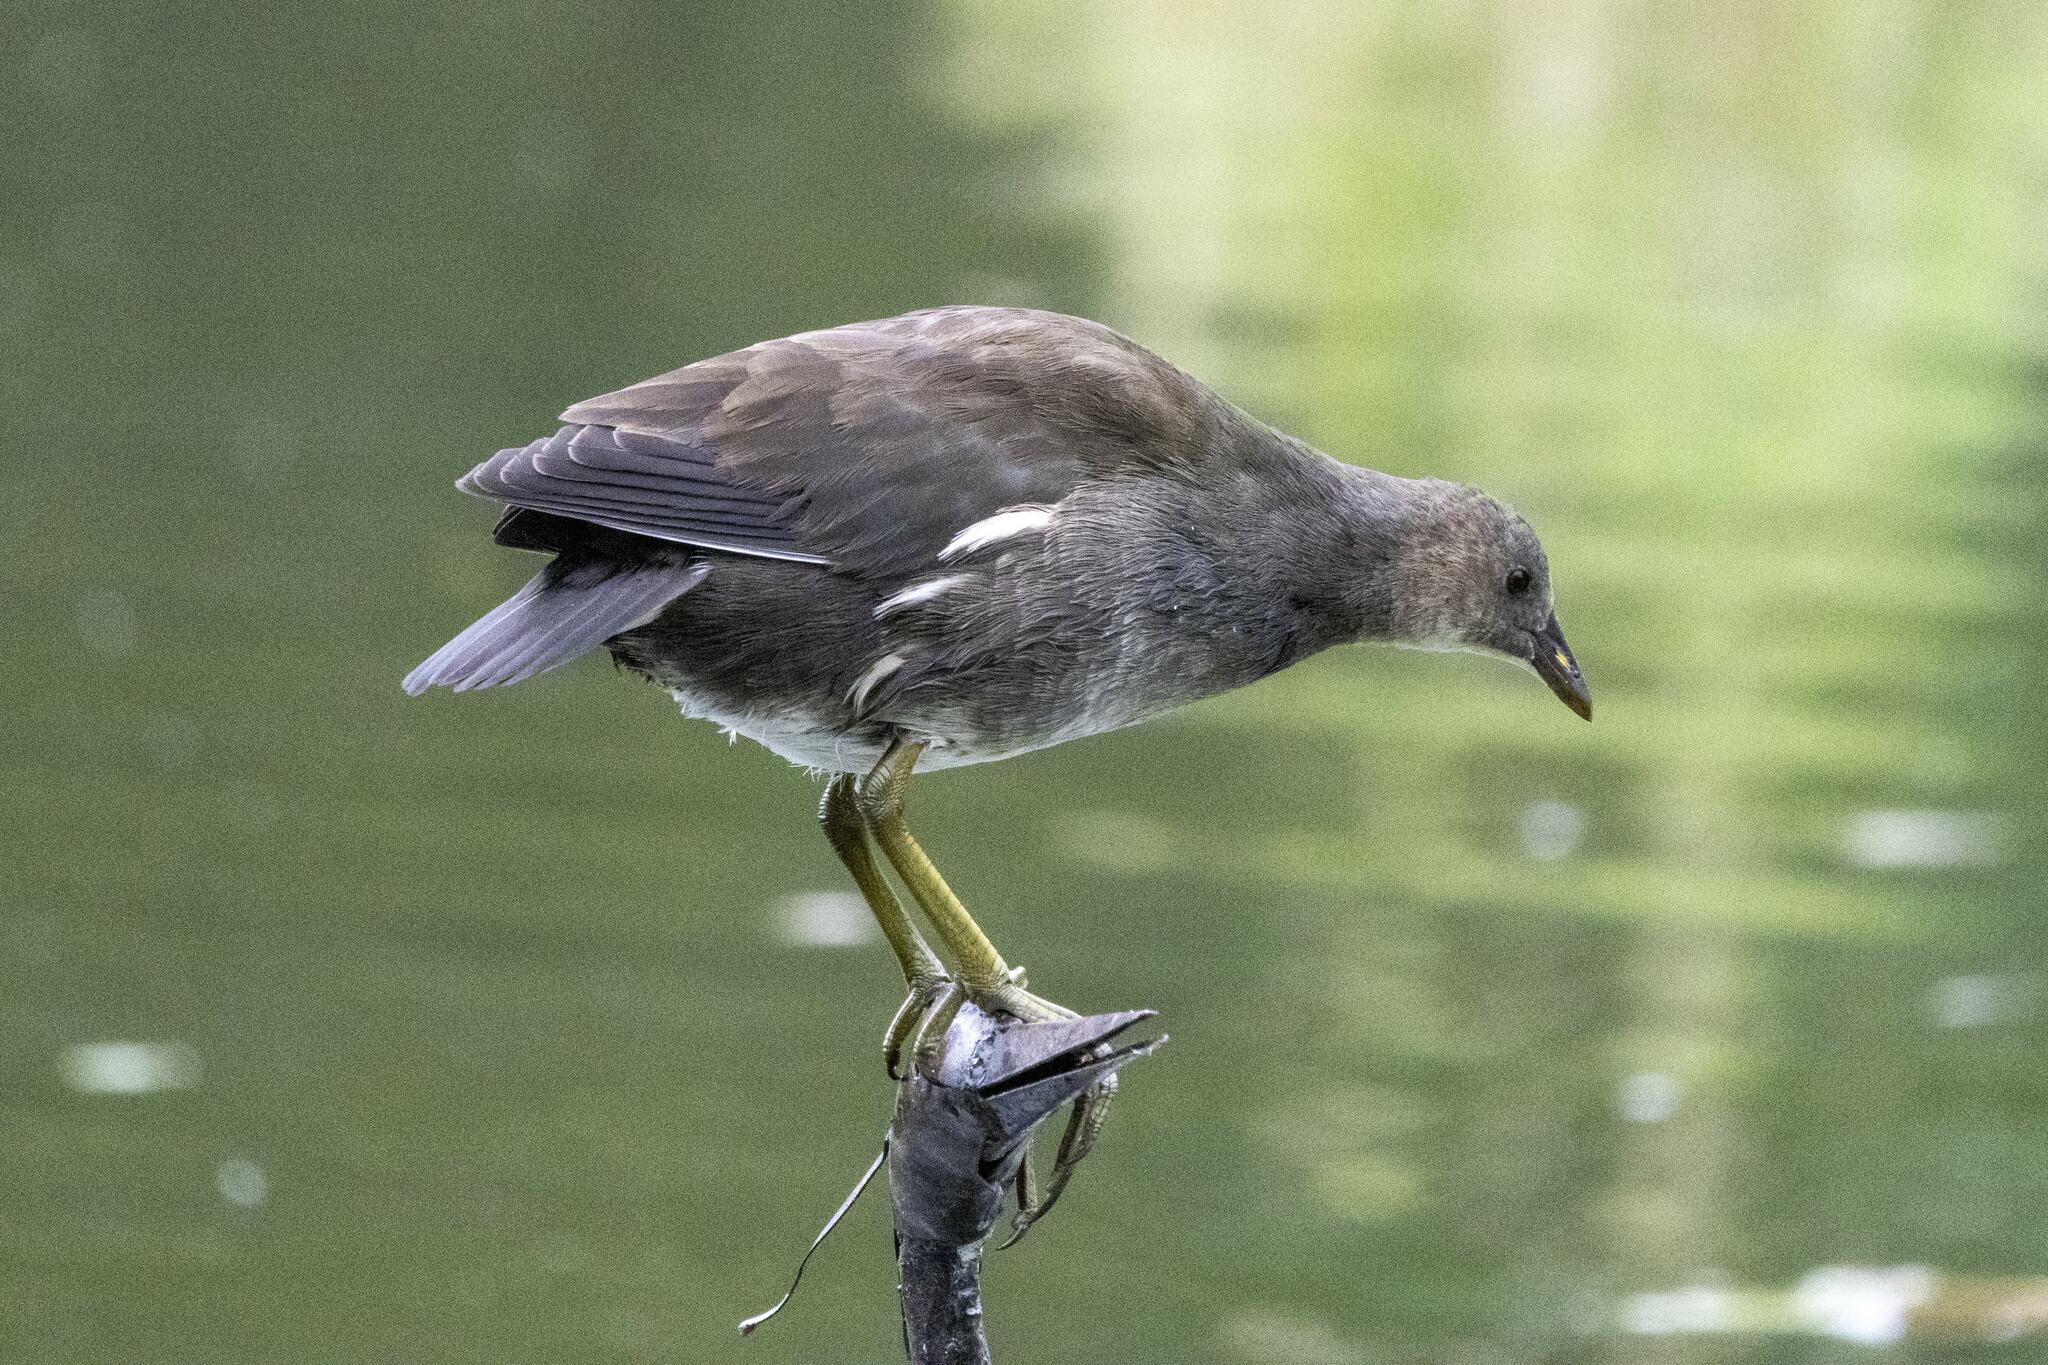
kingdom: Animalia
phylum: Chordata
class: Aves
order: Gruiformes
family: Rallidae
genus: Gallinula
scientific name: Gallinula chloropus
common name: Common moorhen
